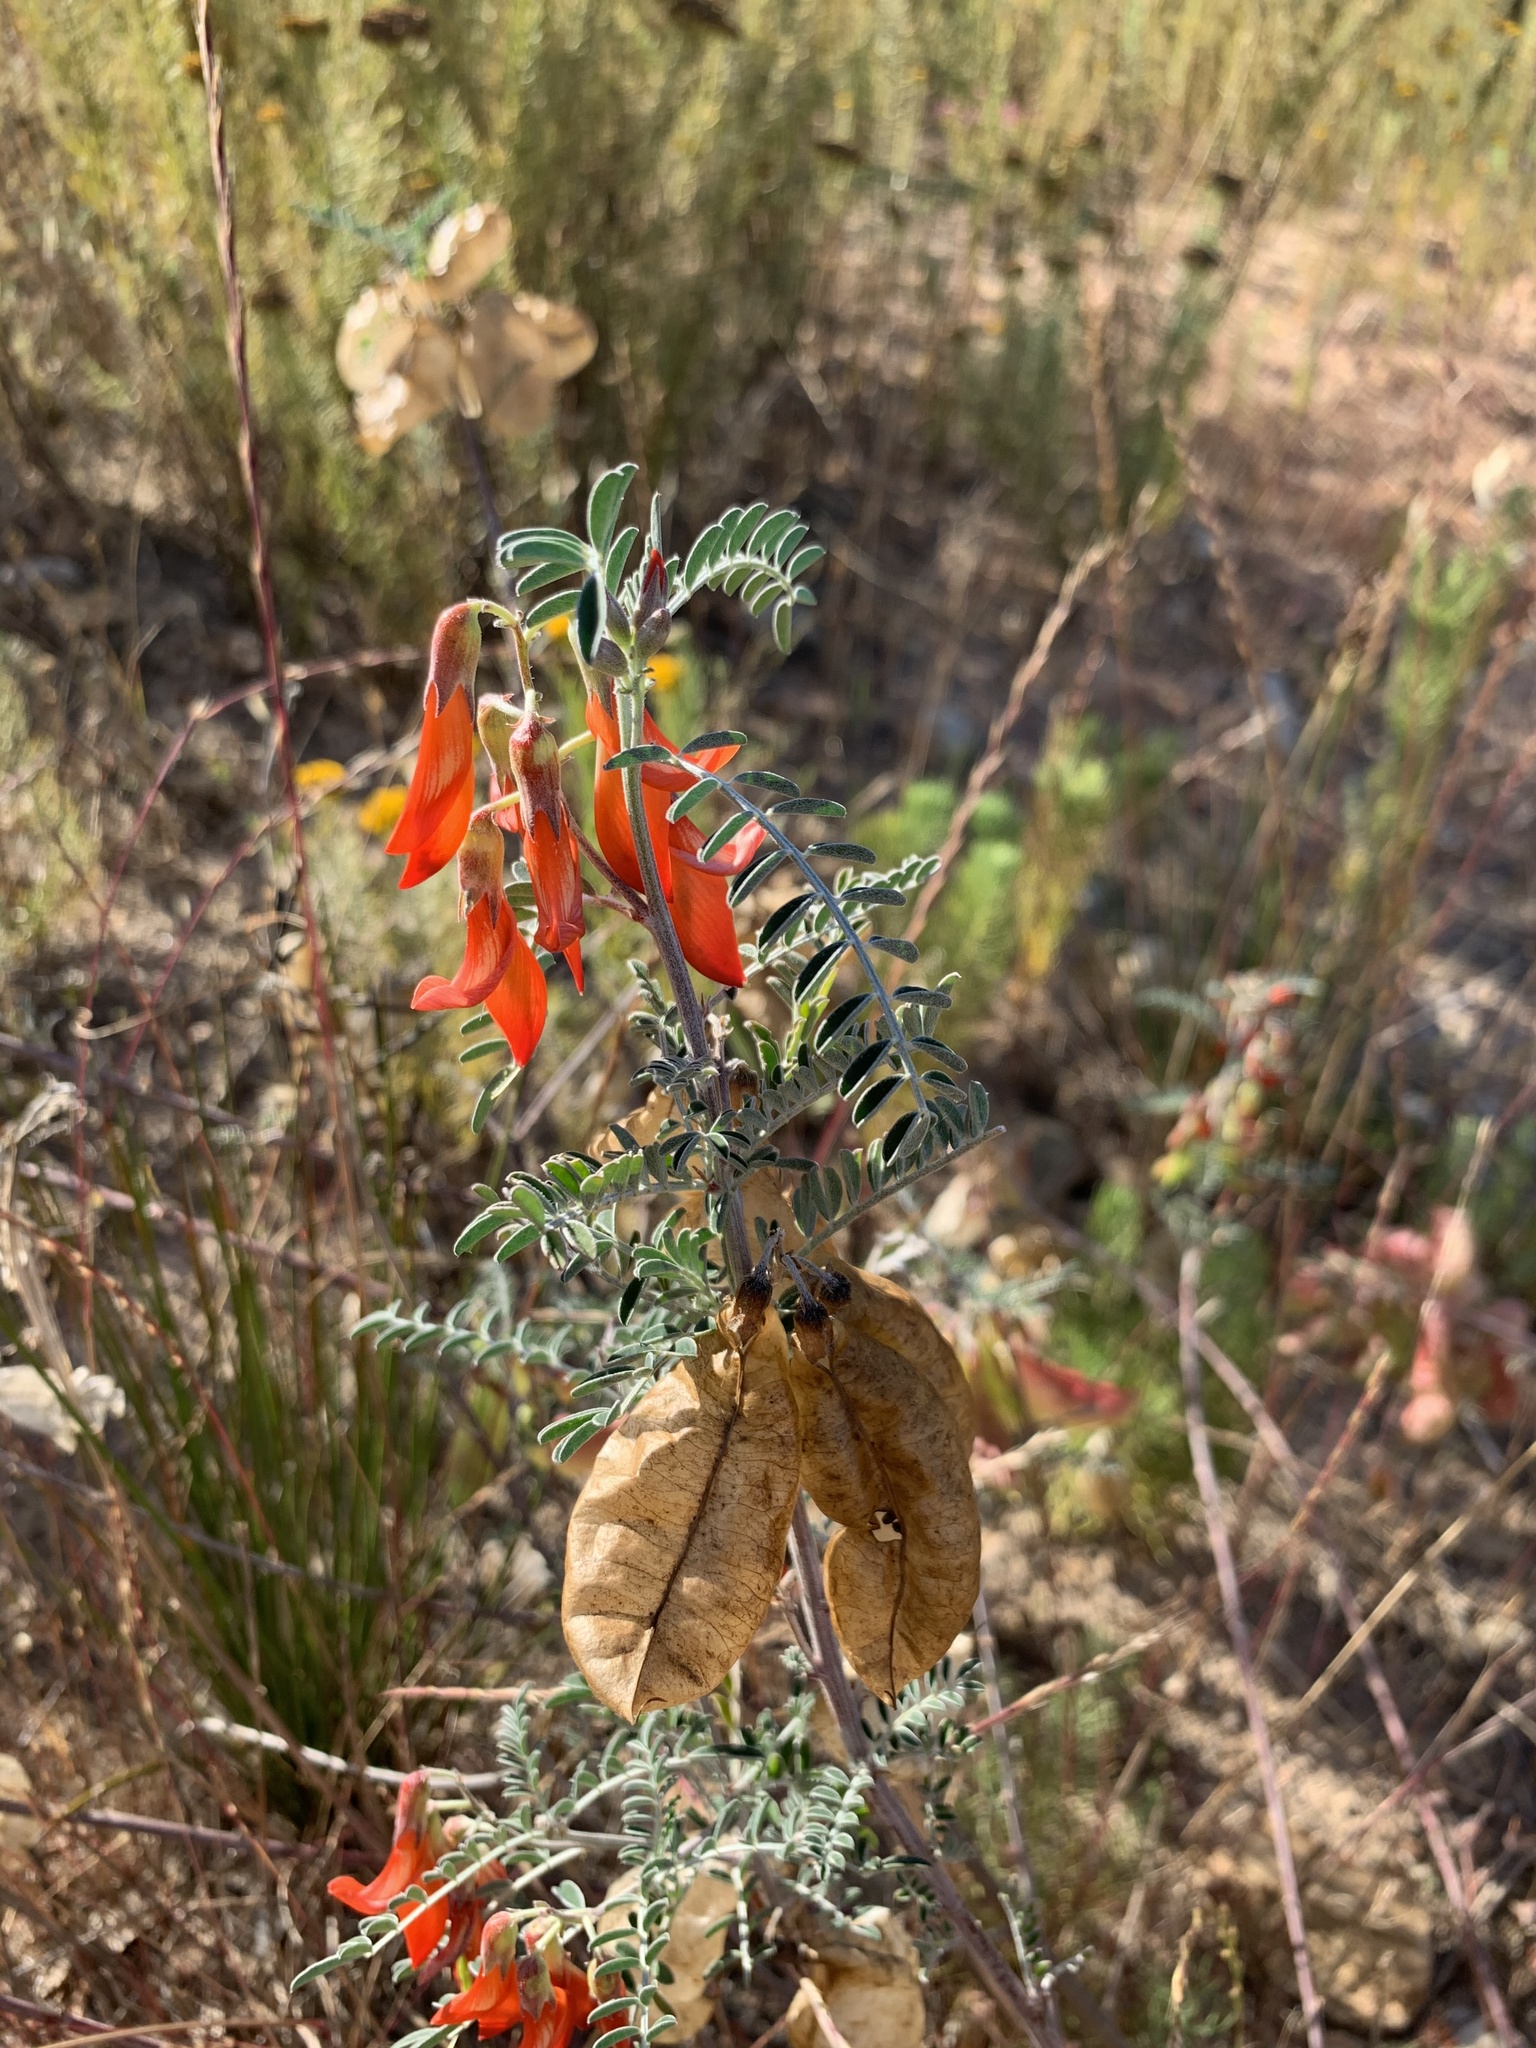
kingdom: Plantae
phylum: Tracheophyta
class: Magnoliopsida
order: Fabales
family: Fabaceae
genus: Lessertia
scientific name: Lessertia frutescens
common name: Balloon-pea
